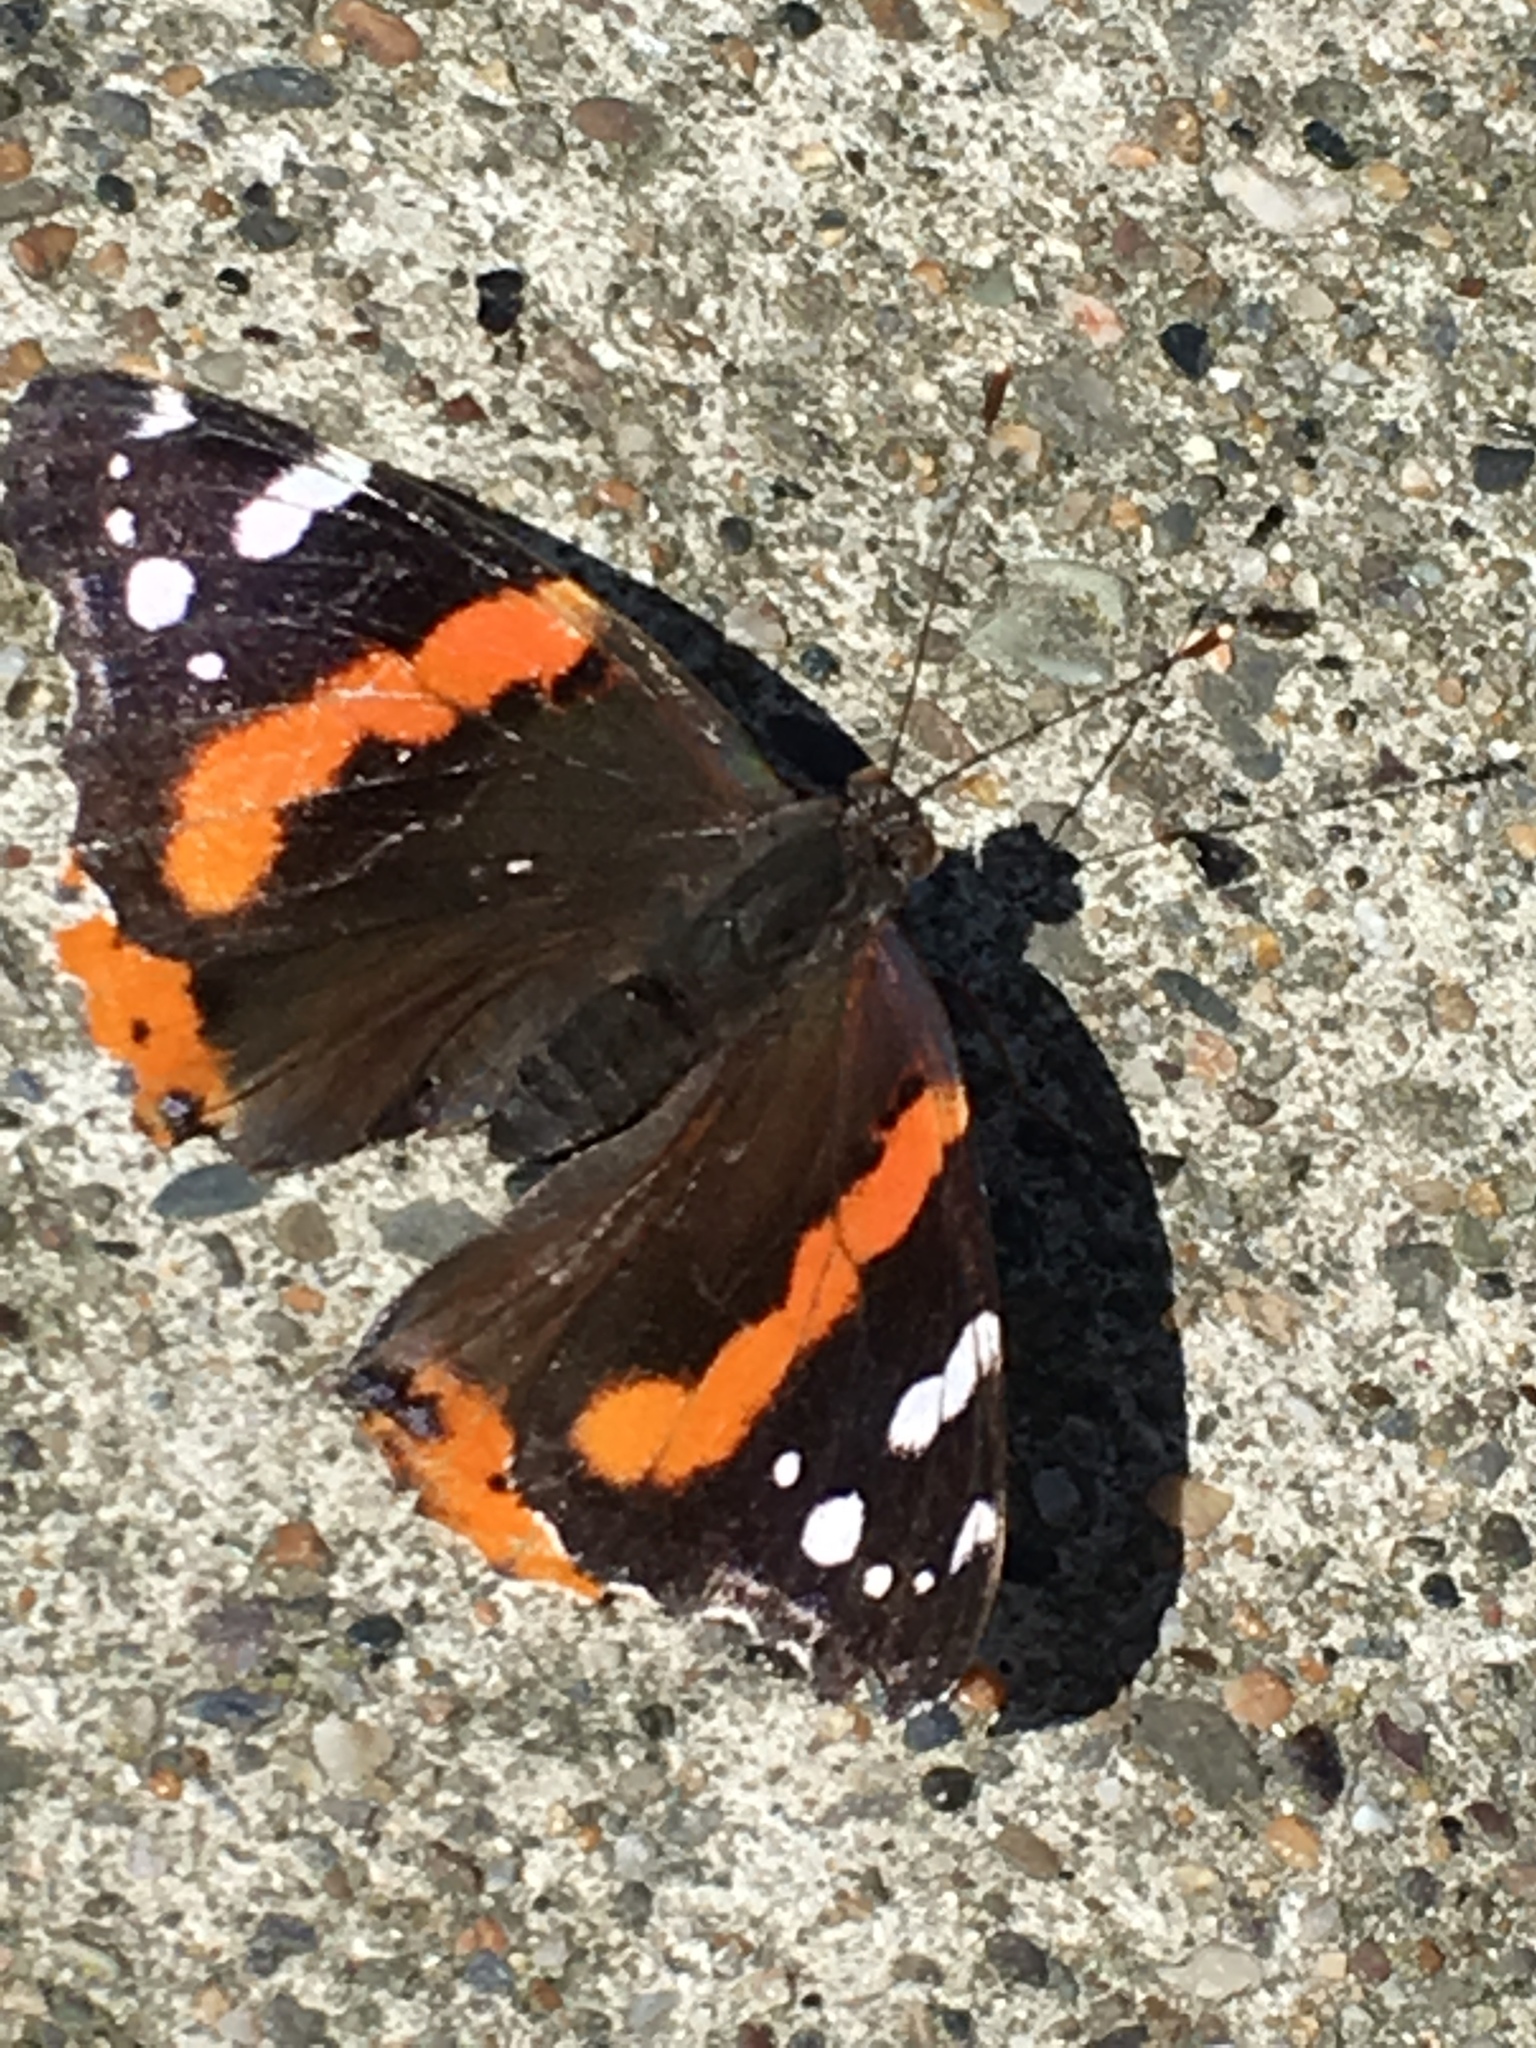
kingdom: Animalia
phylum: Arthropoda
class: Insecta
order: Lepidoptera
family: Nymphalidae
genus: Vanessa
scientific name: Vanessa atalanta
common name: Red admiral
